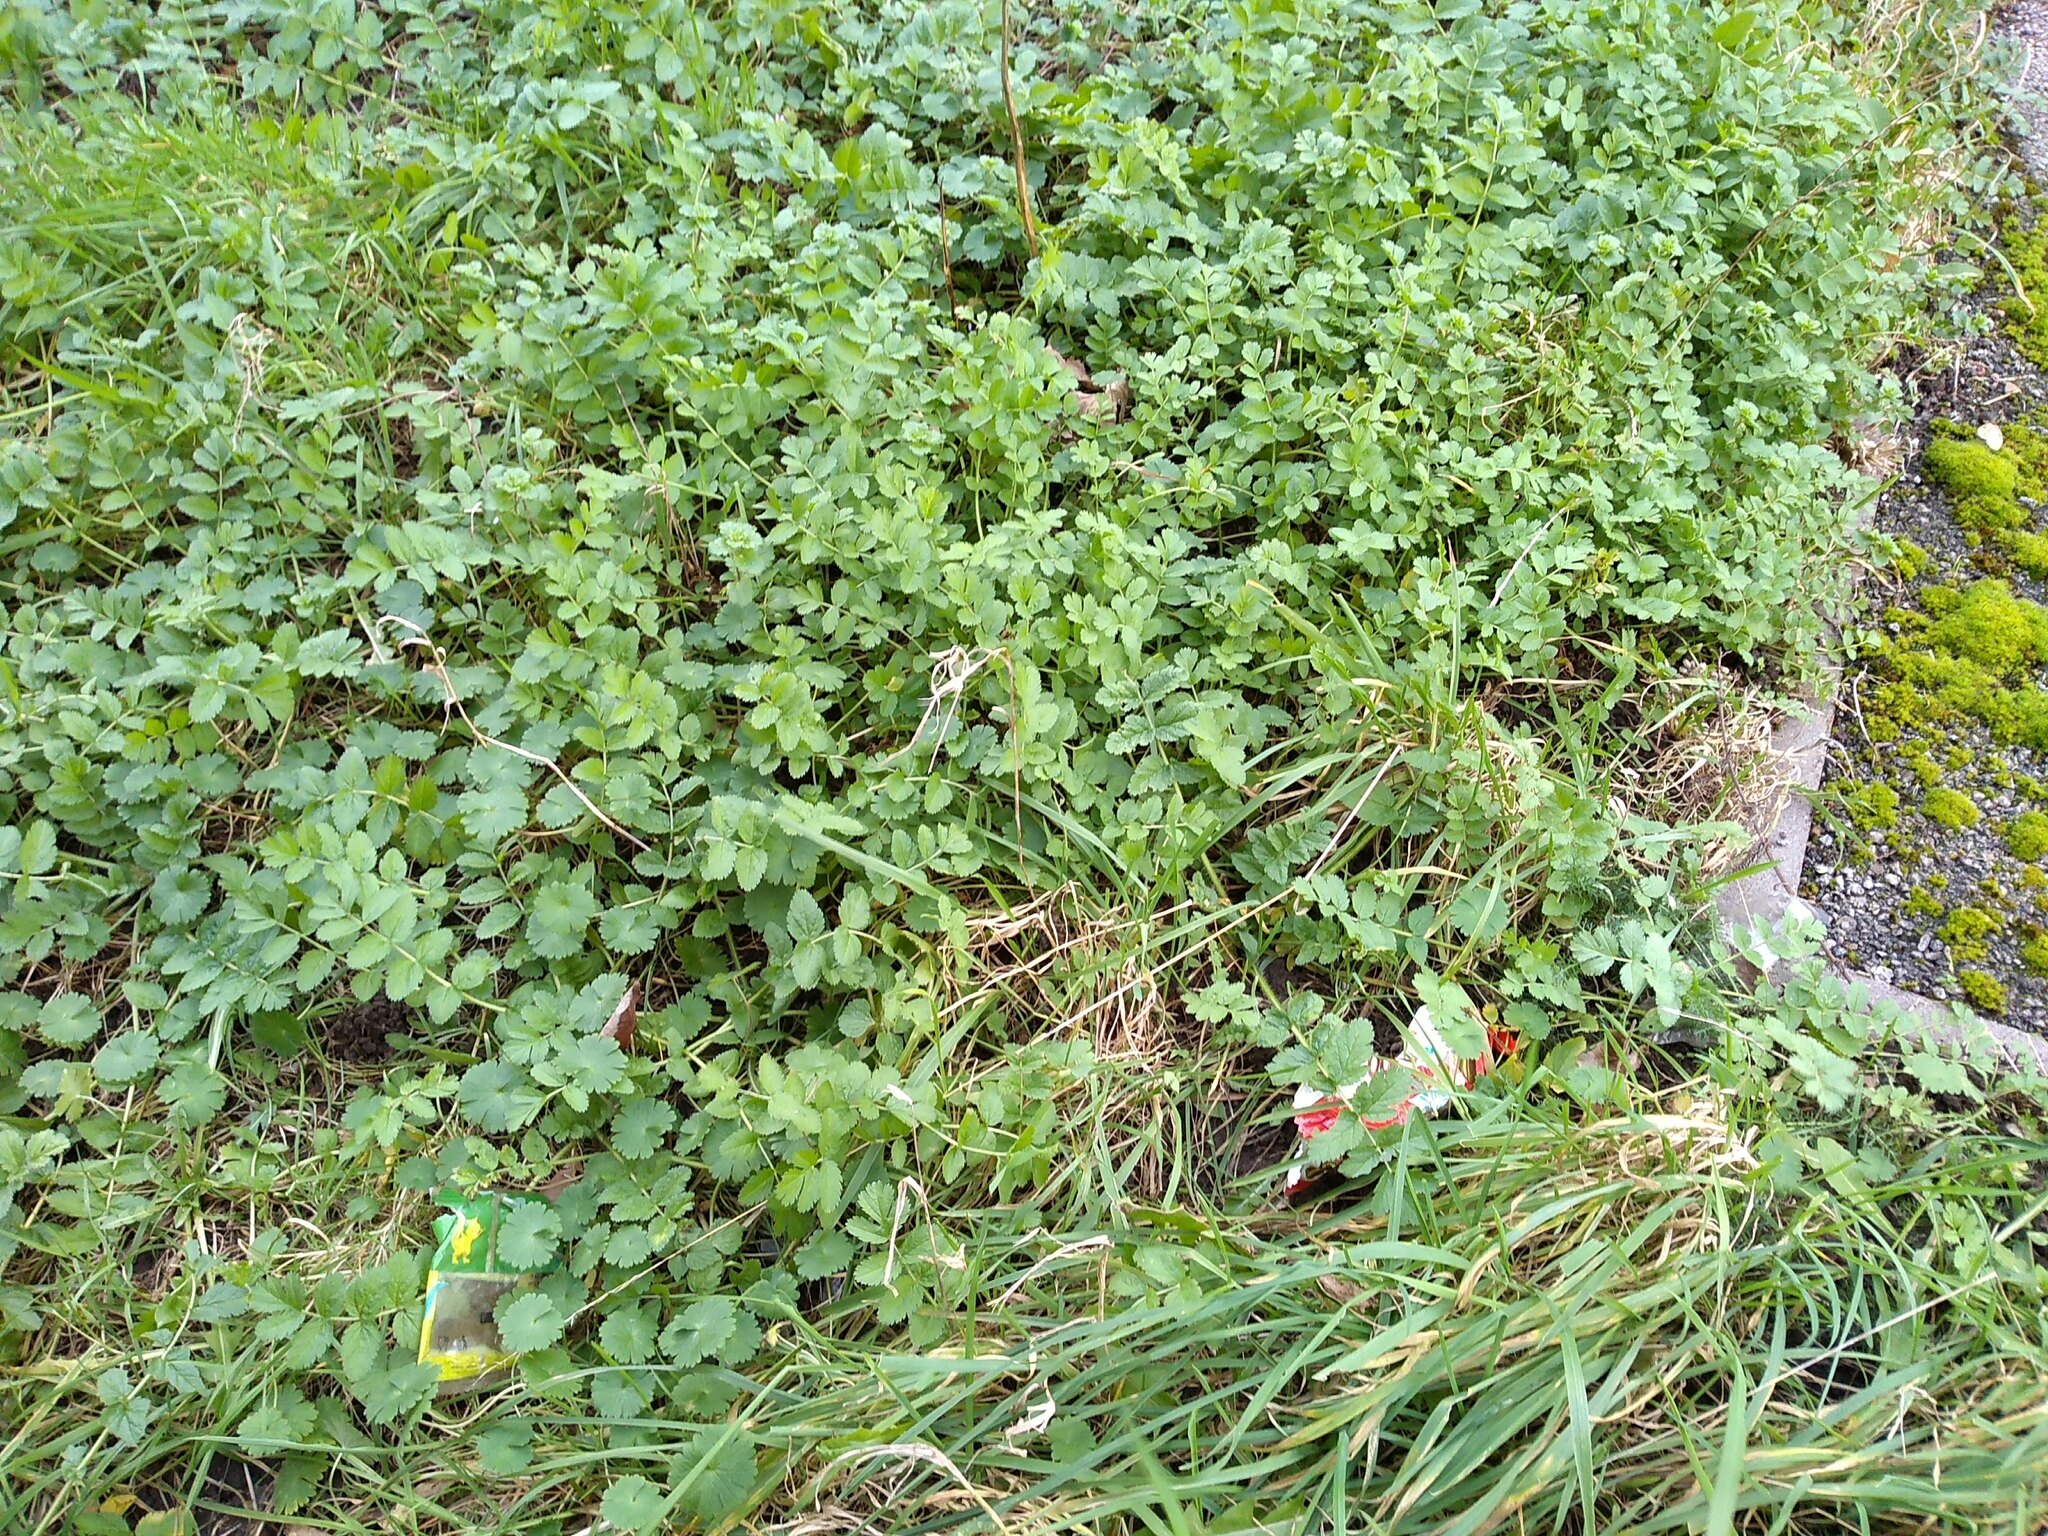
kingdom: Plantae
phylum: Tracheophyta
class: Magnoliopsida
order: Apiales
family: Apiaceae
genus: Pastinaca
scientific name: Pastinaca sativa
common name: Wild parsnip
